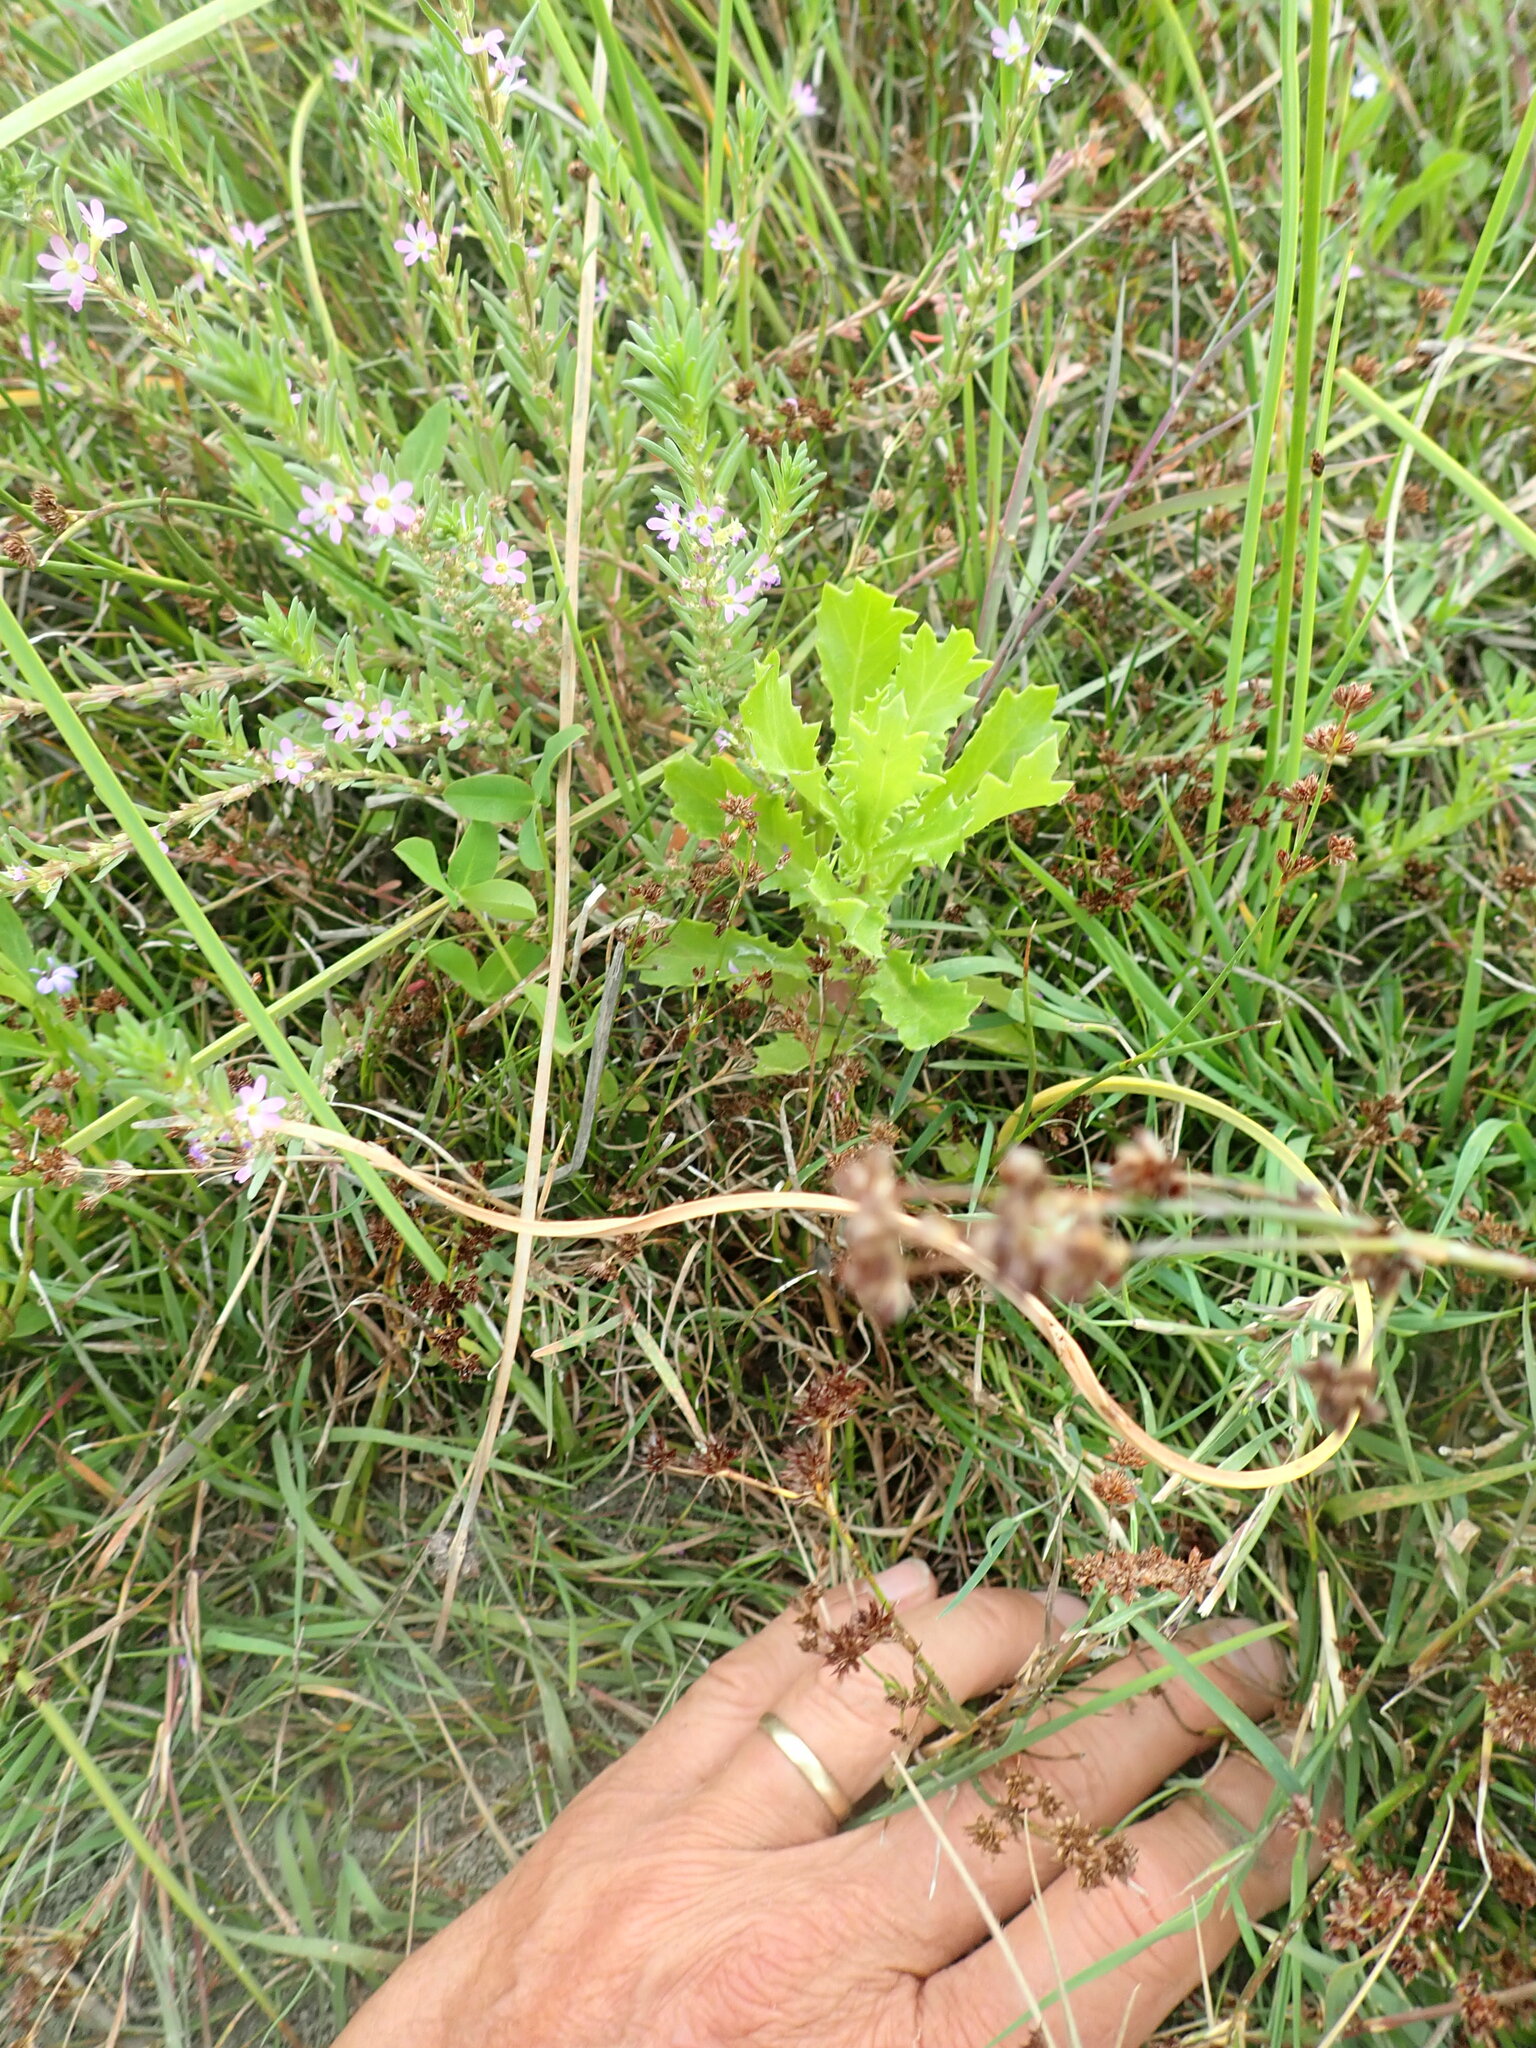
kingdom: Plantae
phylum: Tracheophyta
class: Magnoliopsida
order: Asterales
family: Asteraceae
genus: Senecio
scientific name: Senecio glastifolius
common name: Woad-leaved ragwort
